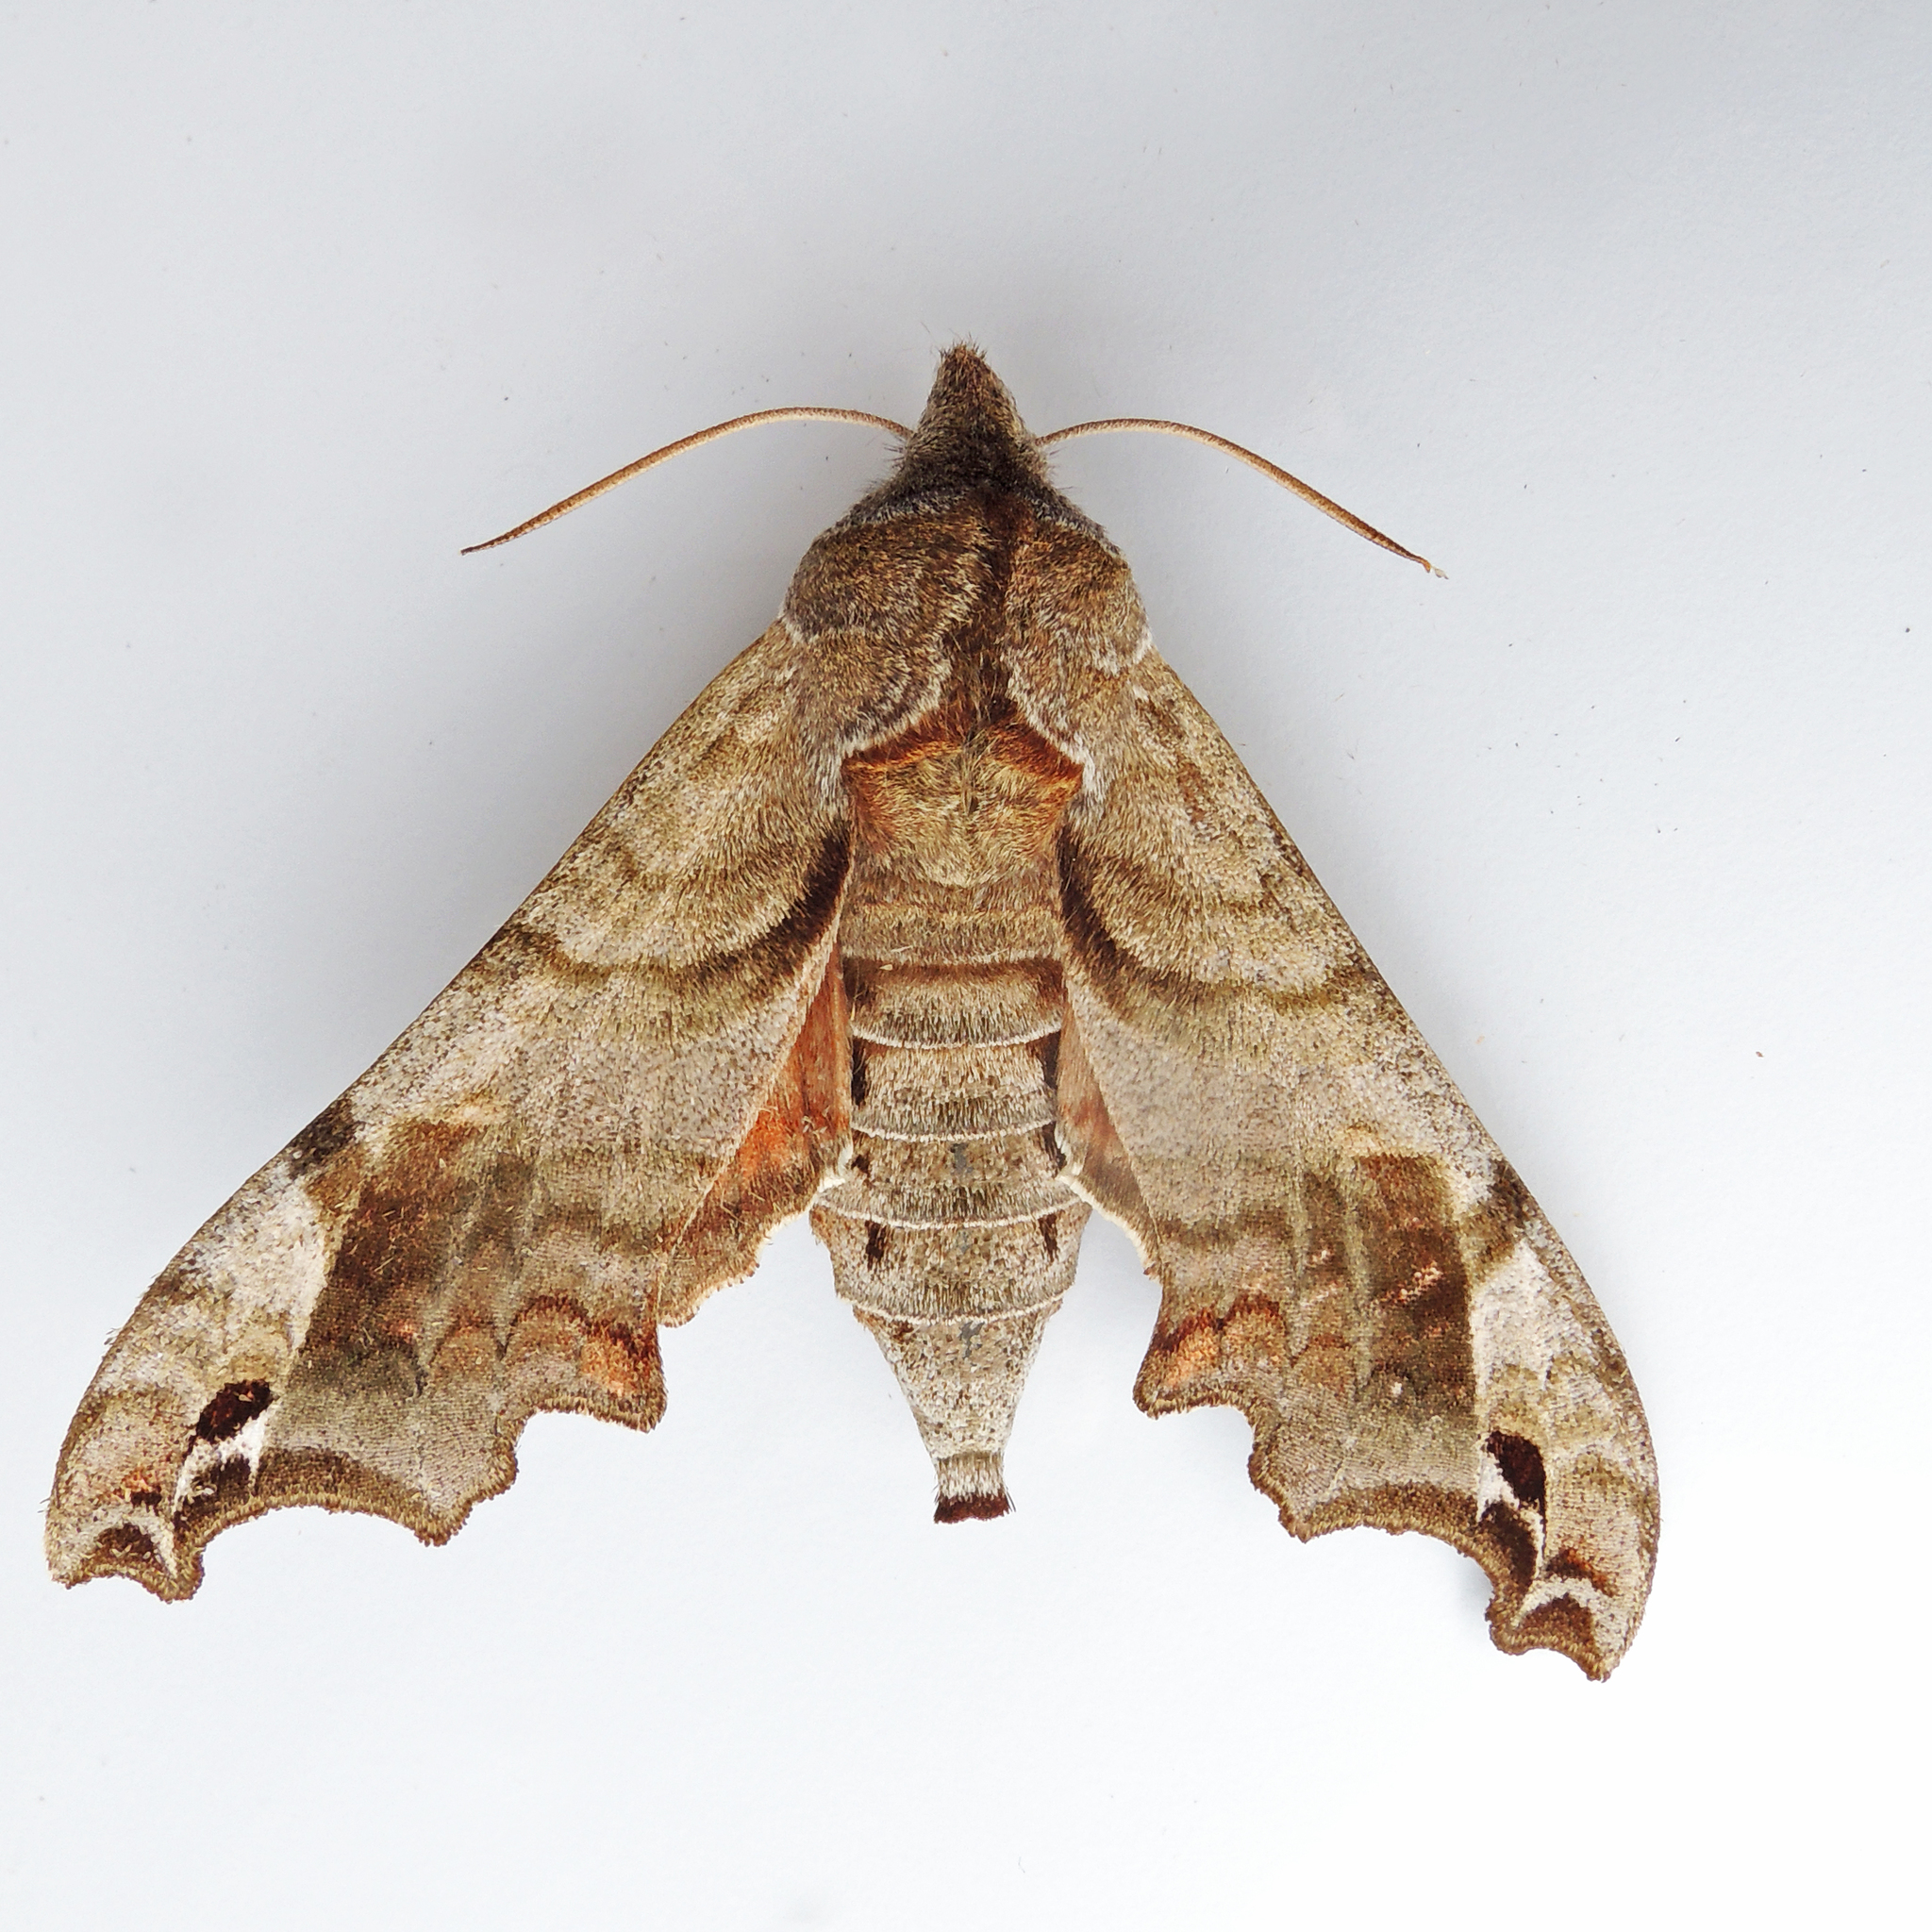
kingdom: Animalia
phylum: Arthropoda
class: Insecta
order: Lepidoptera
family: Sphingidae
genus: Deidamia
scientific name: Deidamia inscriptum
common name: Lettered sphinx
